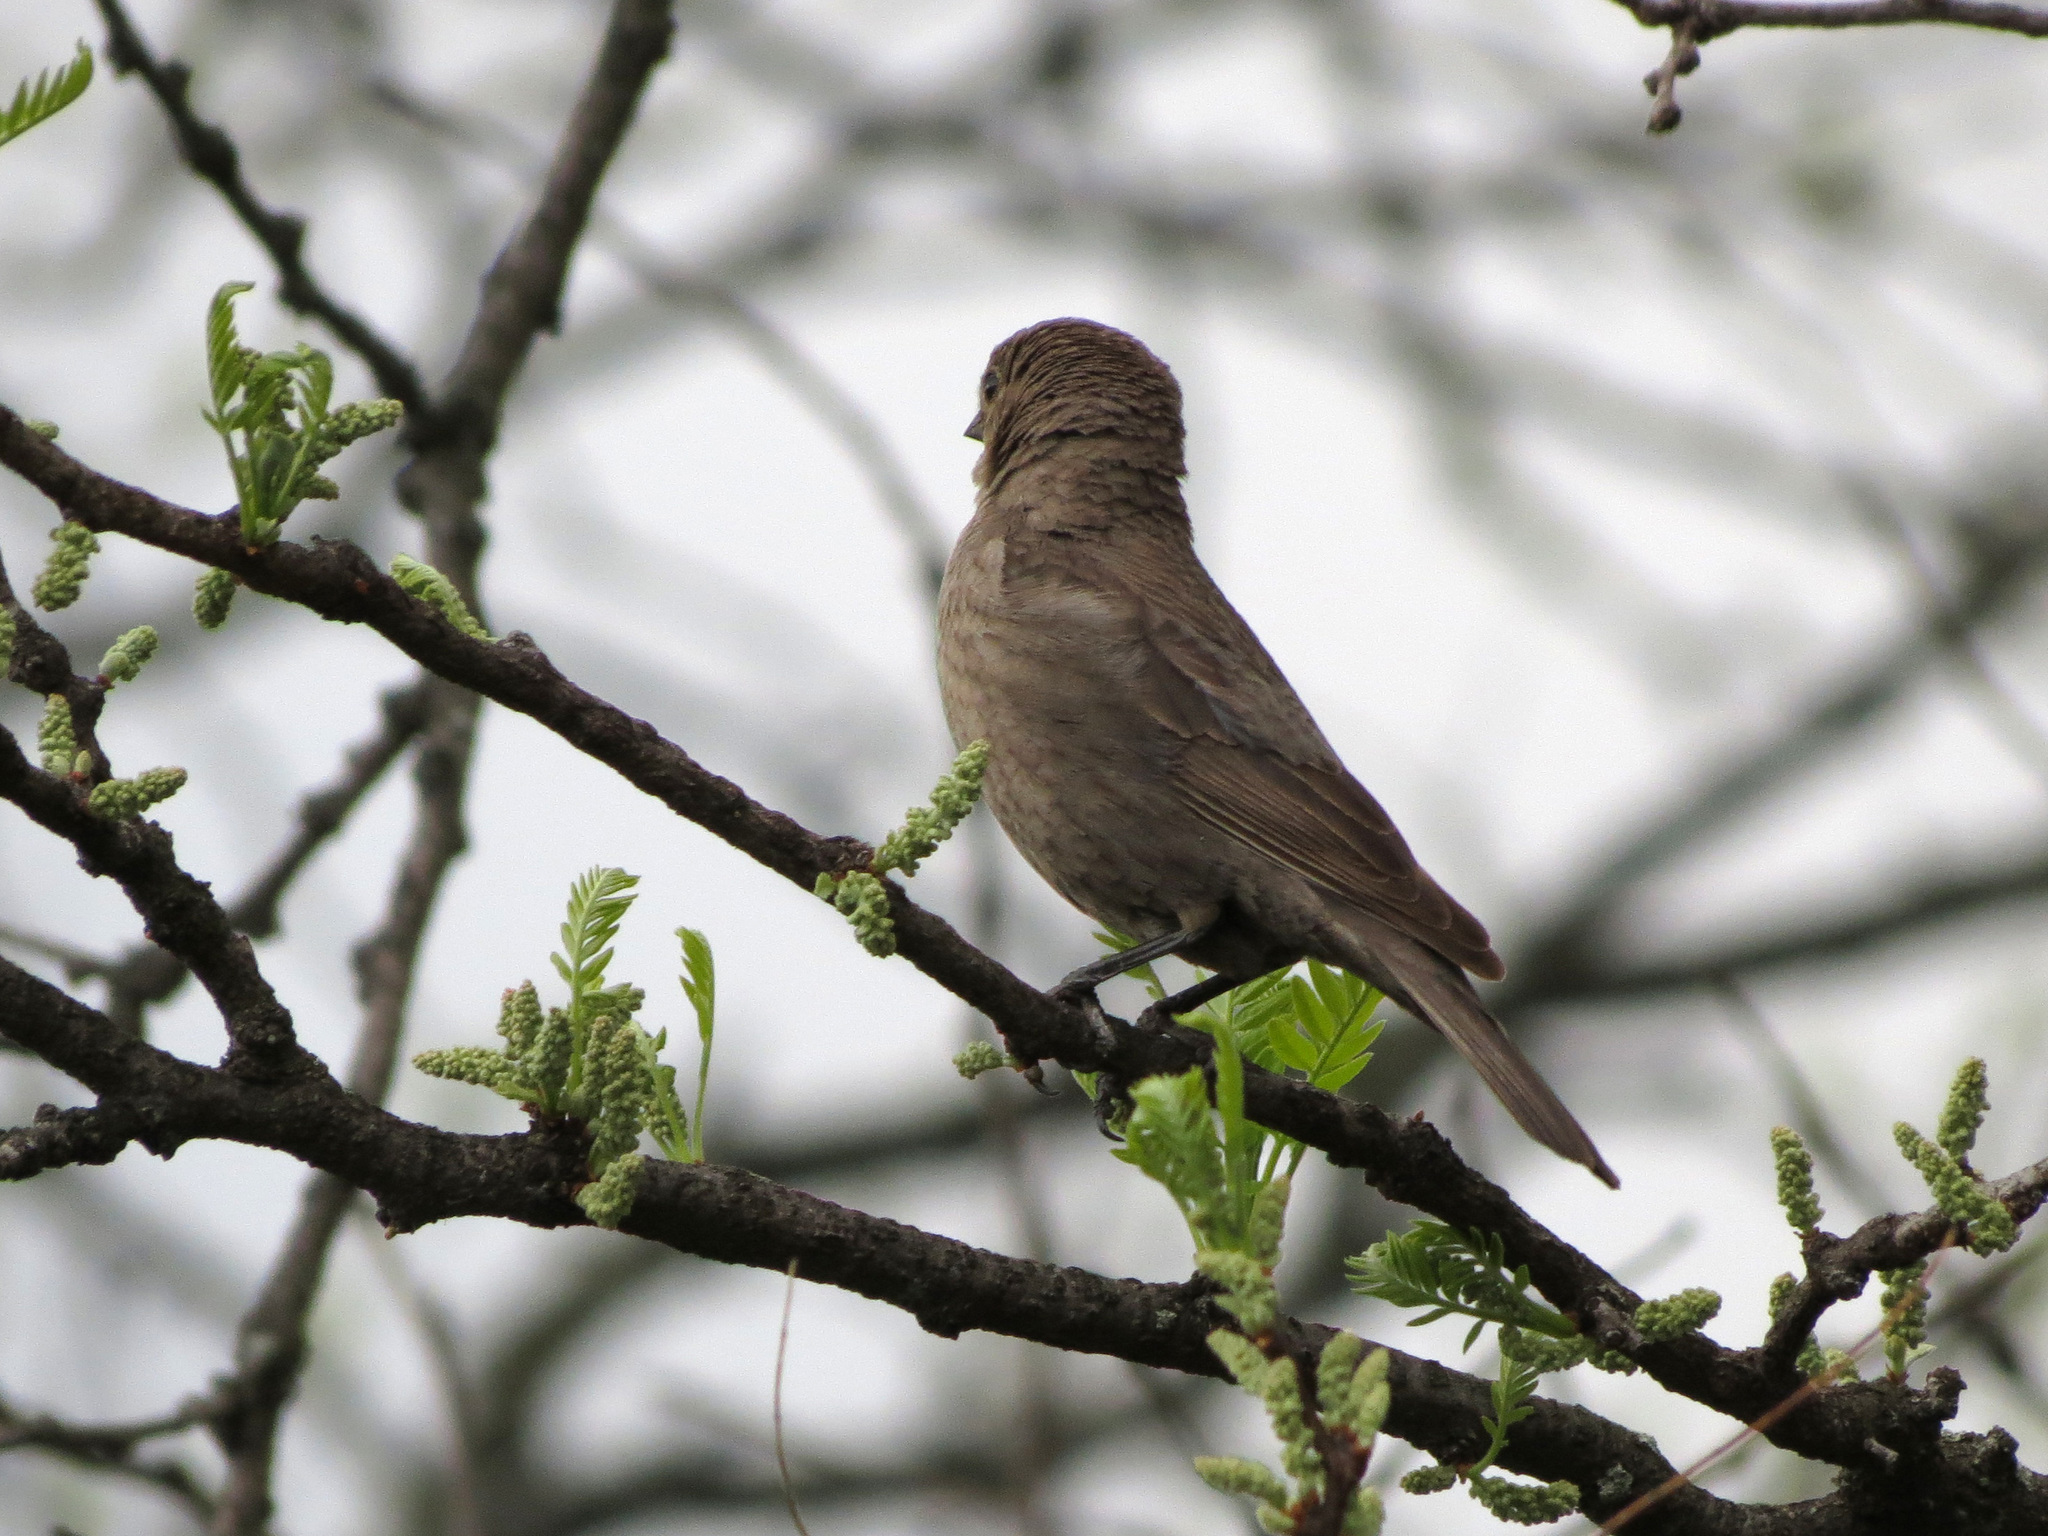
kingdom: Animalia
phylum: Chordata
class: Aves
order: Passeriformes
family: Icteridae
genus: Molothrus
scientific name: Molothrus ater
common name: Brown-headed cowbird
